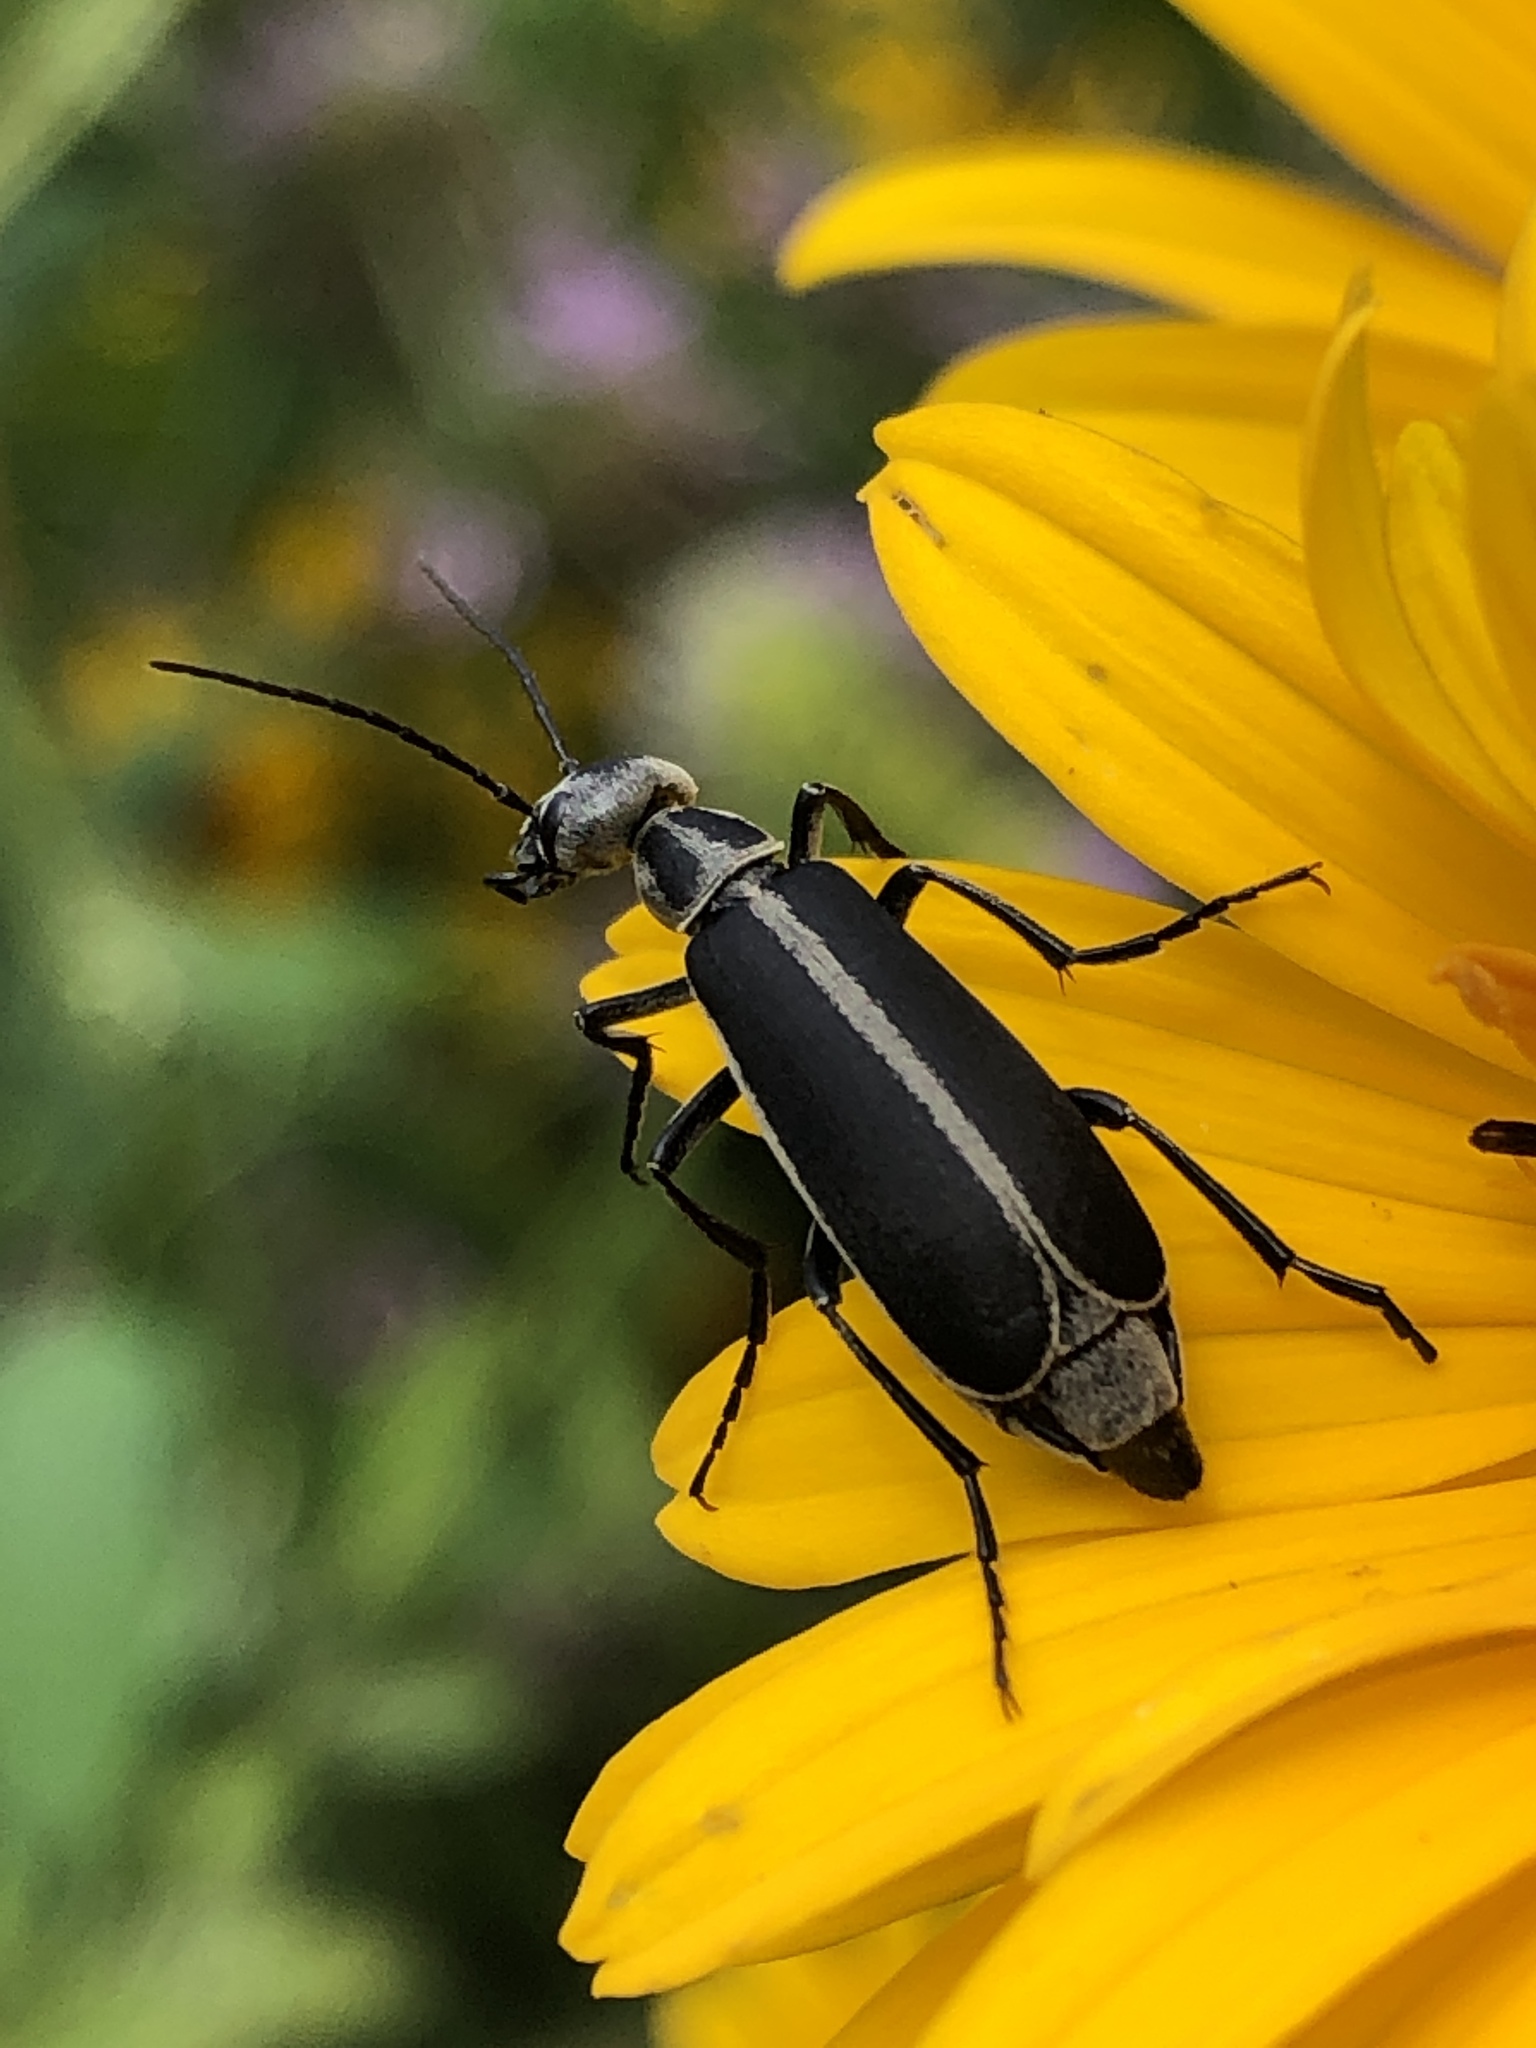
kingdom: Animalia
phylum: Arthropoda
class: Insecta
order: Coleoptera
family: Meloidae
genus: Epicauta
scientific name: Epicauta funebris
